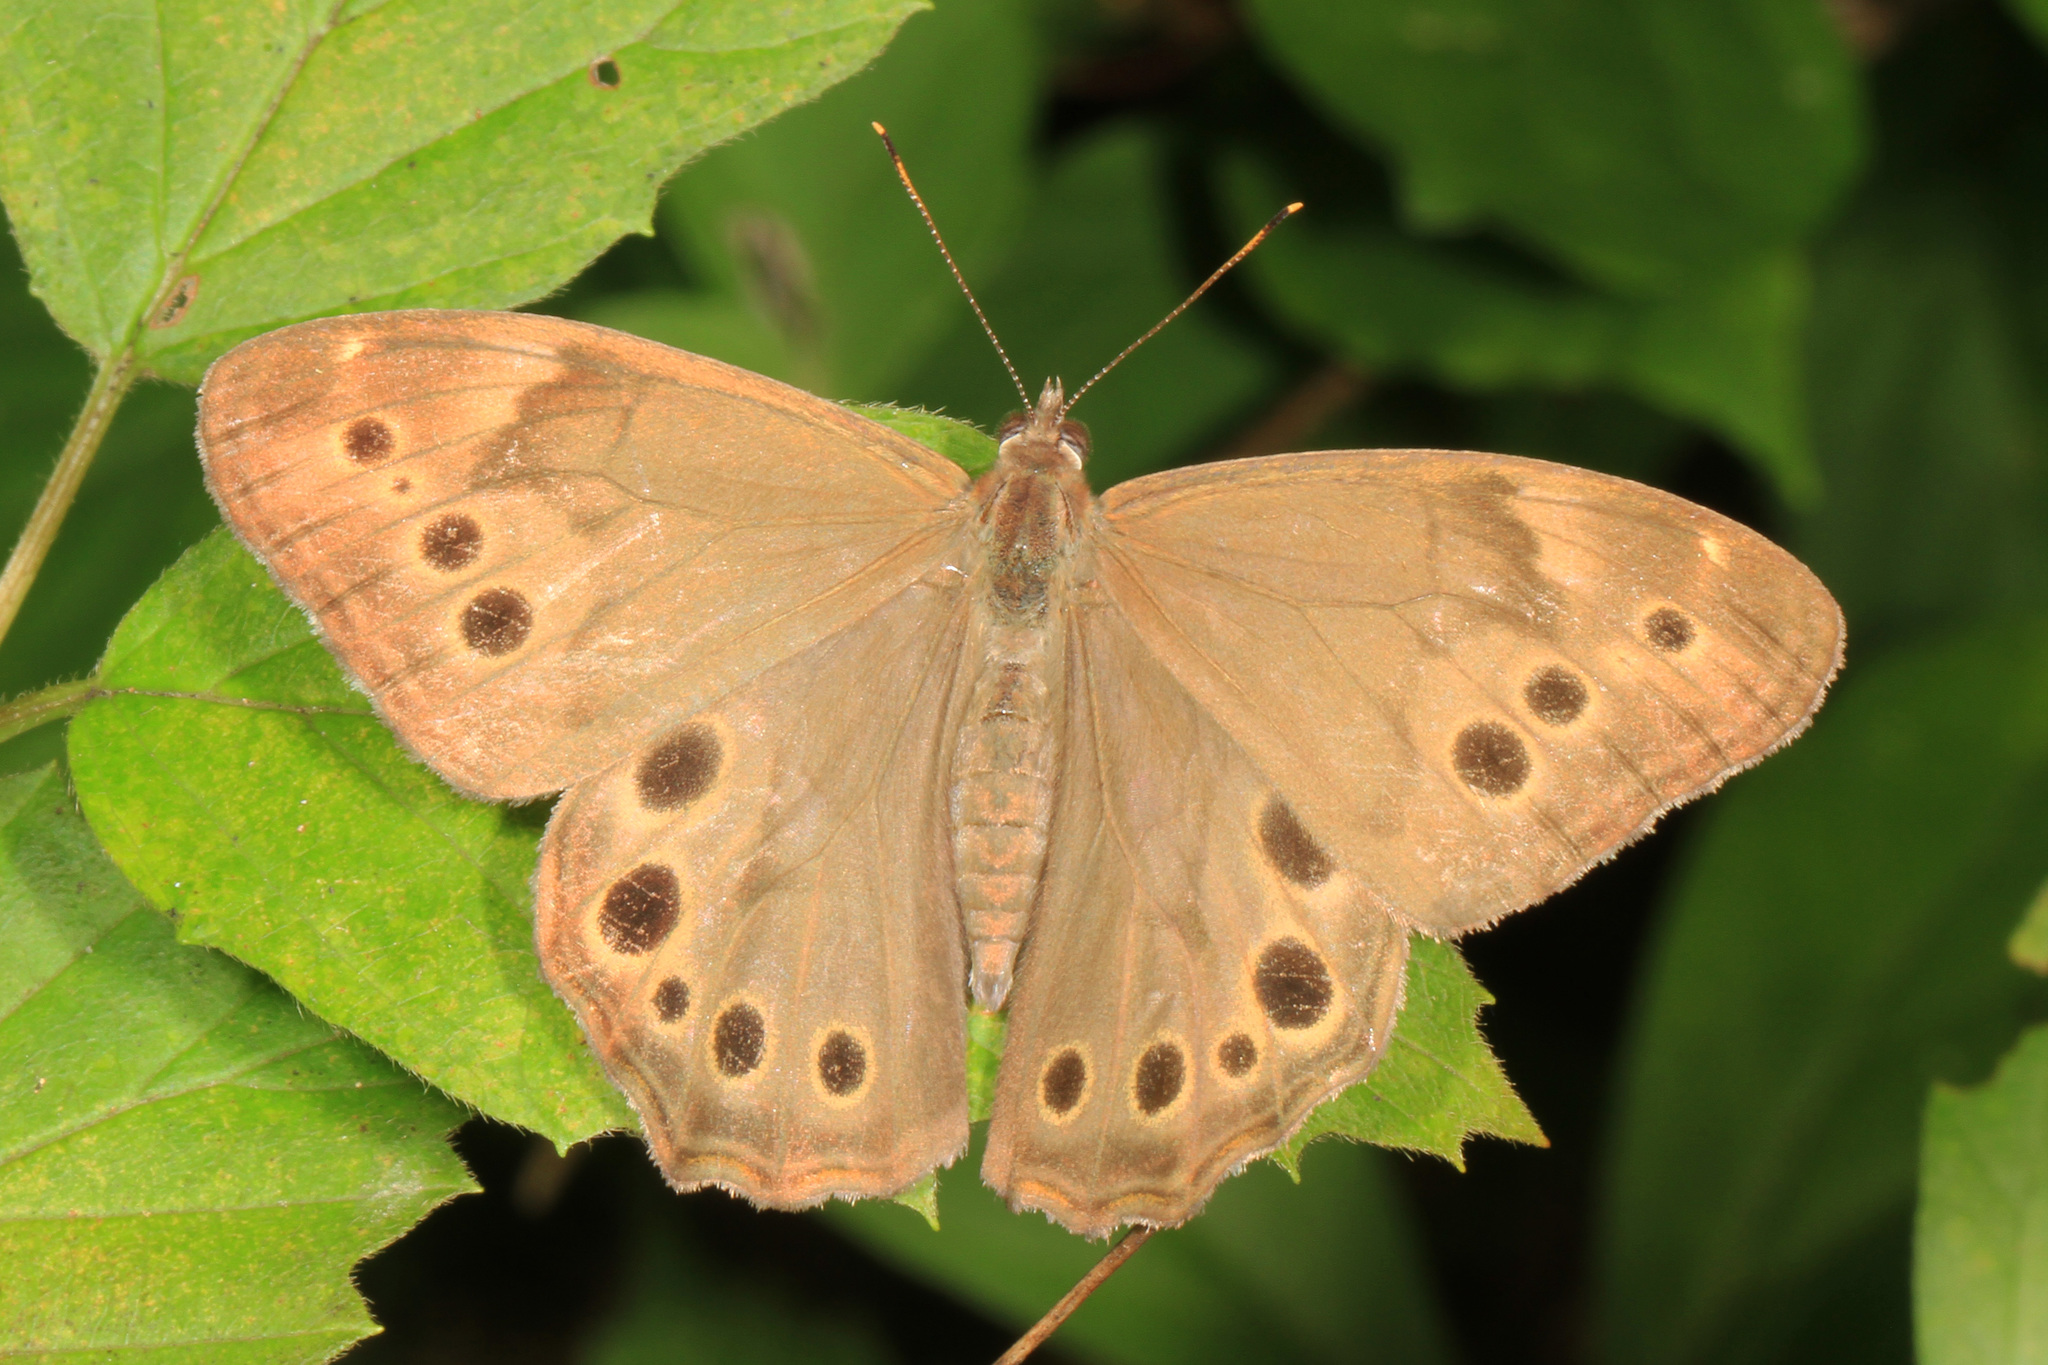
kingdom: Animalia
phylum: Arthropoda
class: Insecta
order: Lepidoptera
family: Nymphalidae
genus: Lethe
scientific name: Lethe anthedon
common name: Northern pearly-eye
